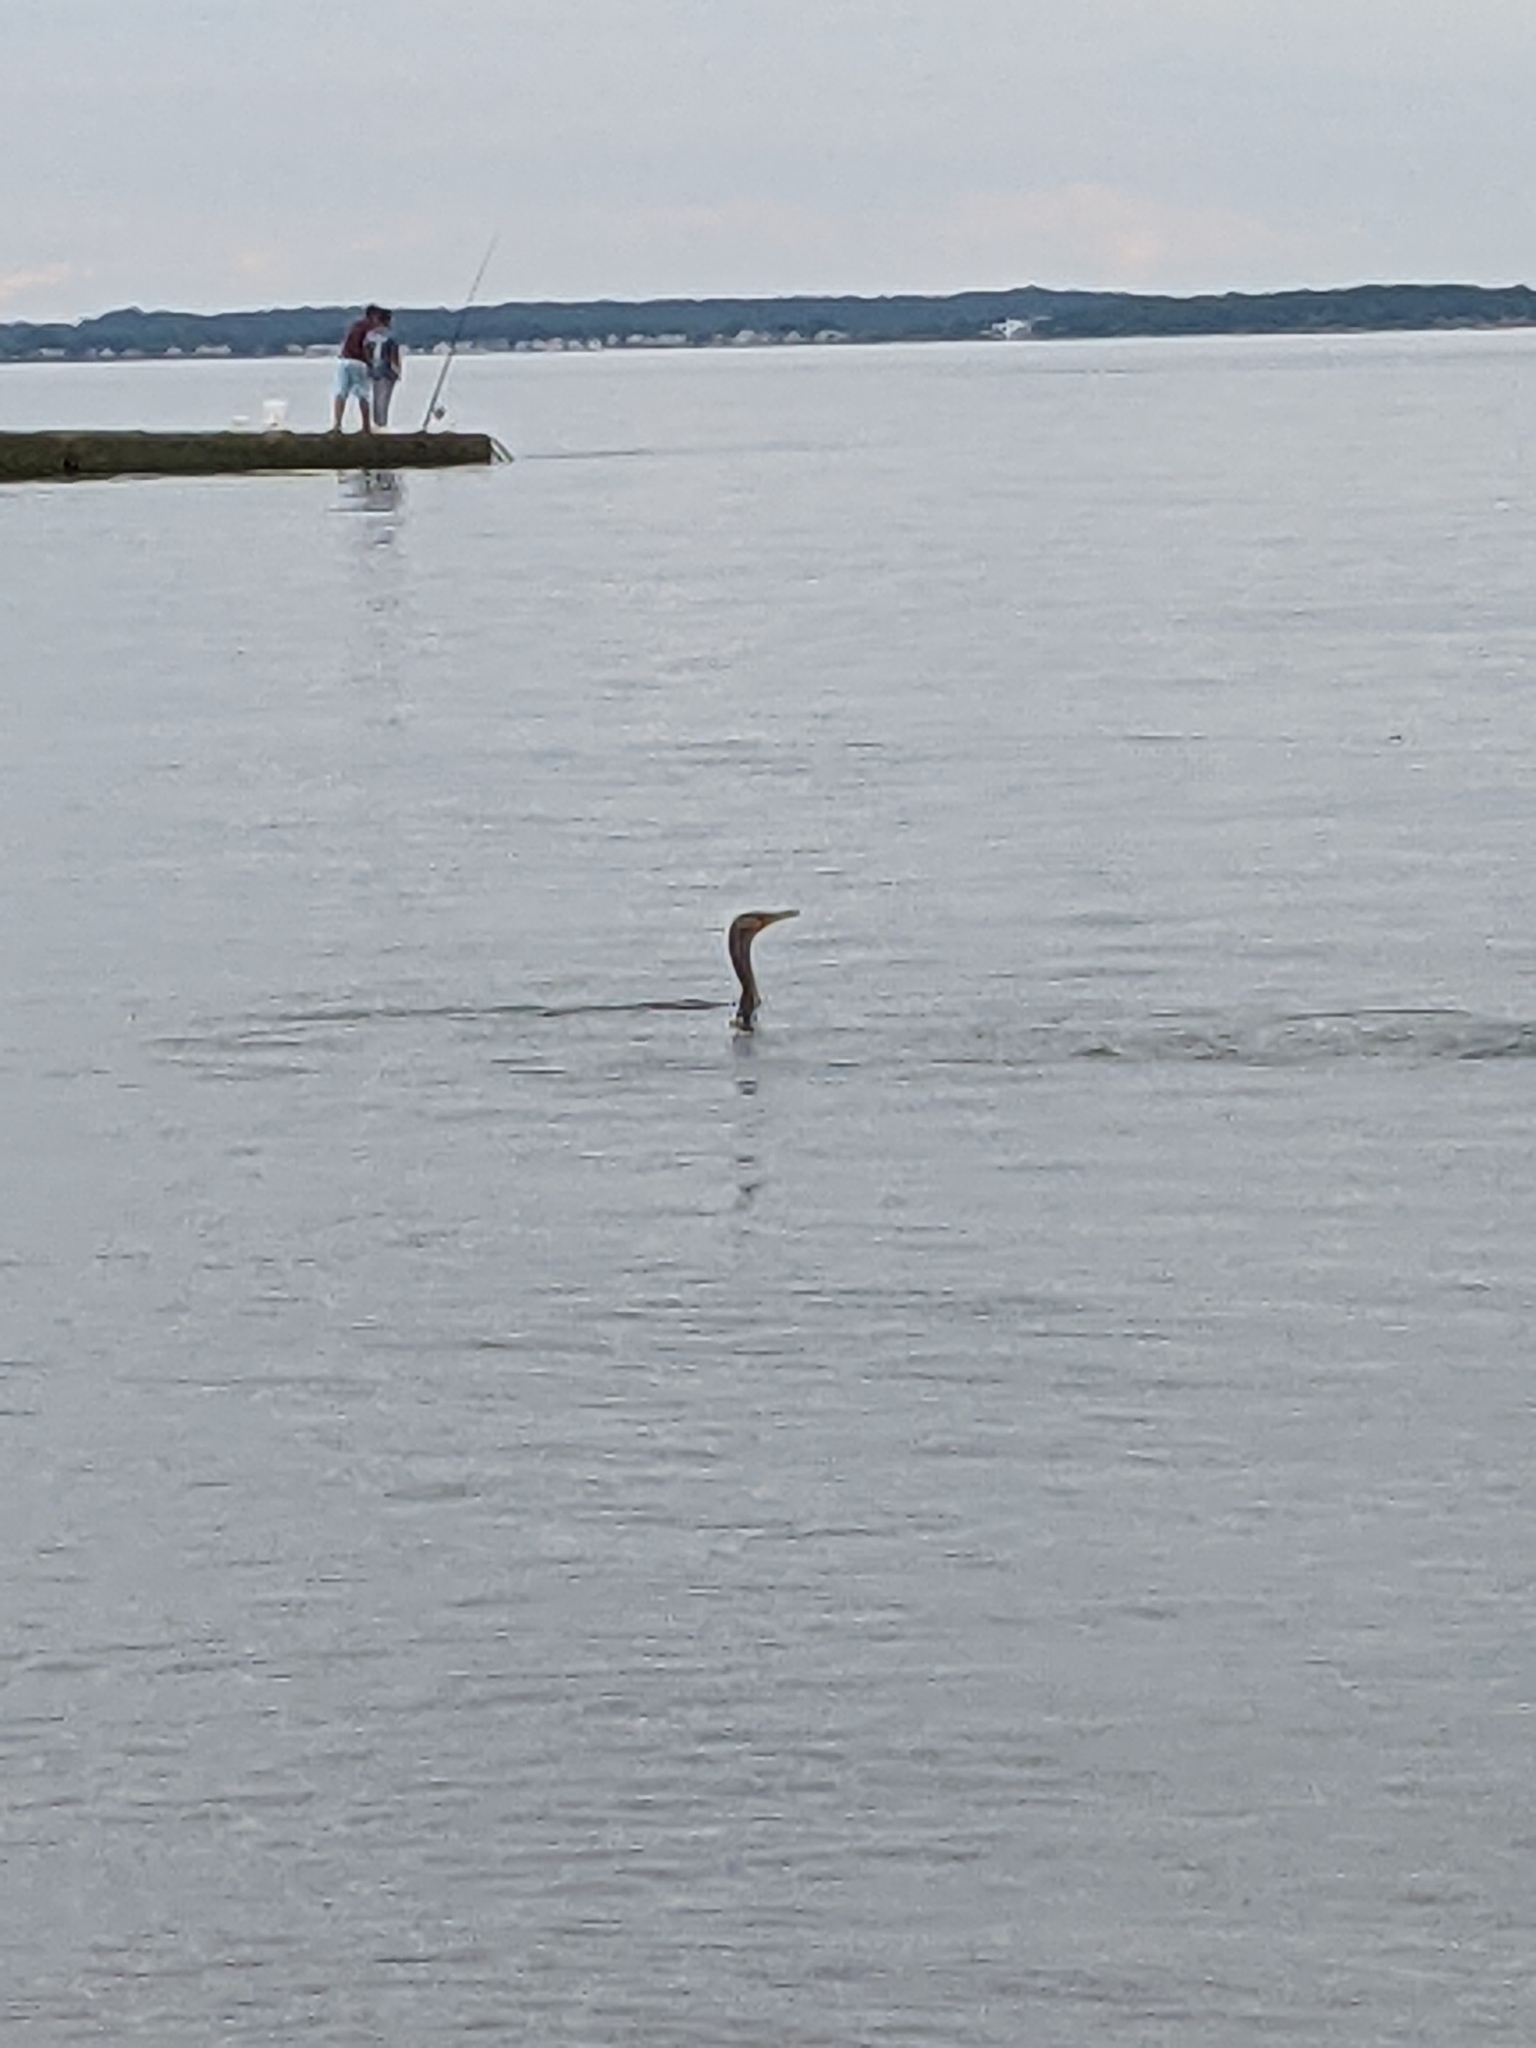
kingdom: Animalia
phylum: Chordata
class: Aves
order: Suliformes
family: Phalacrocoracidae
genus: Phalacrocorax
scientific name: Phalacrocorax auritus
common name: Double-crested cormorant
